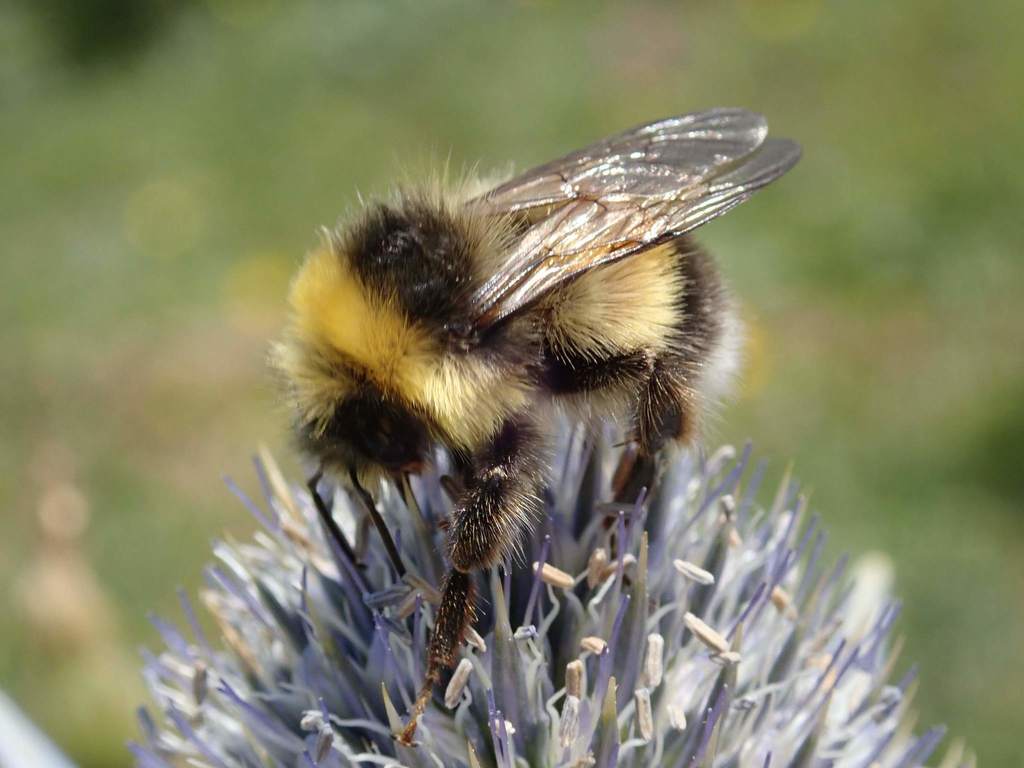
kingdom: Animalia
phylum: Arthropoda
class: Insecta
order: Hymenoptera
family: Apidae
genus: Bombus
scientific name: Bombus lucorum
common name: White-tailed bumblebee
